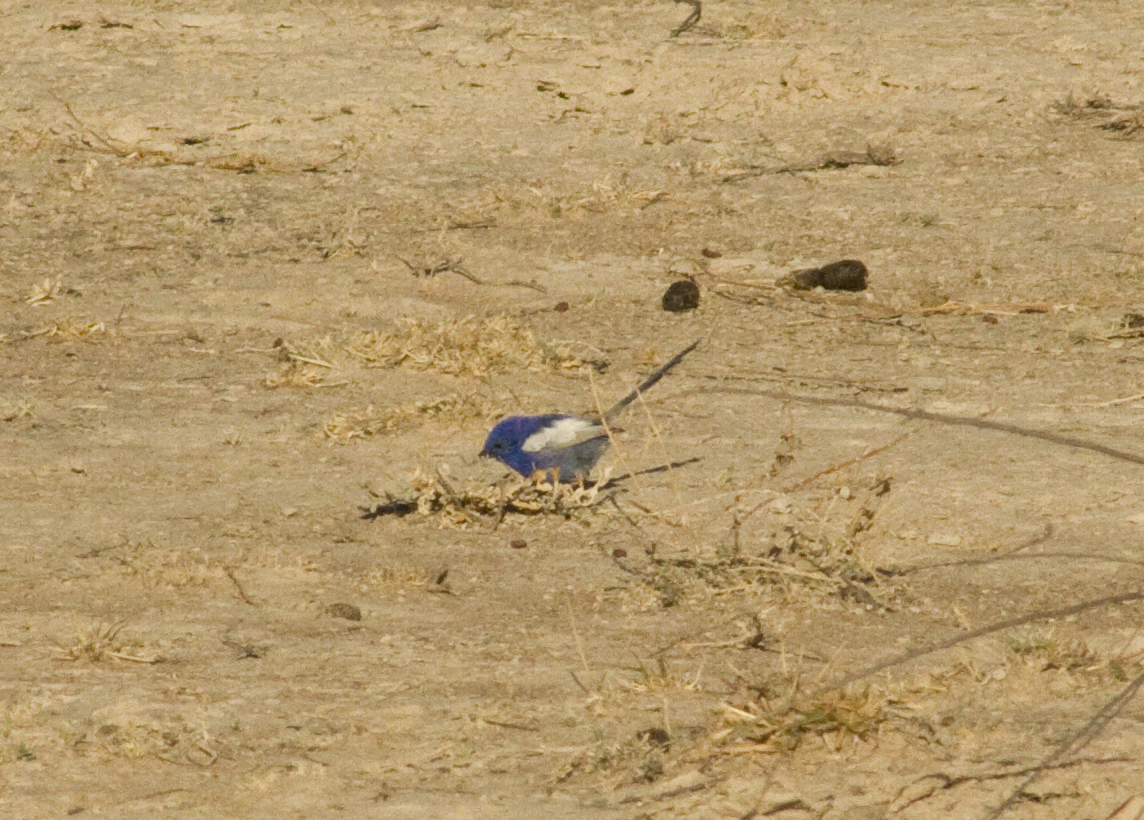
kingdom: Animalia
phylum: Chordata
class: Aves
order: Passeriformes
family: Maluridae
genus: Malurus
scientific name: Malurus leucopterus
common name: White-winged fairywren
